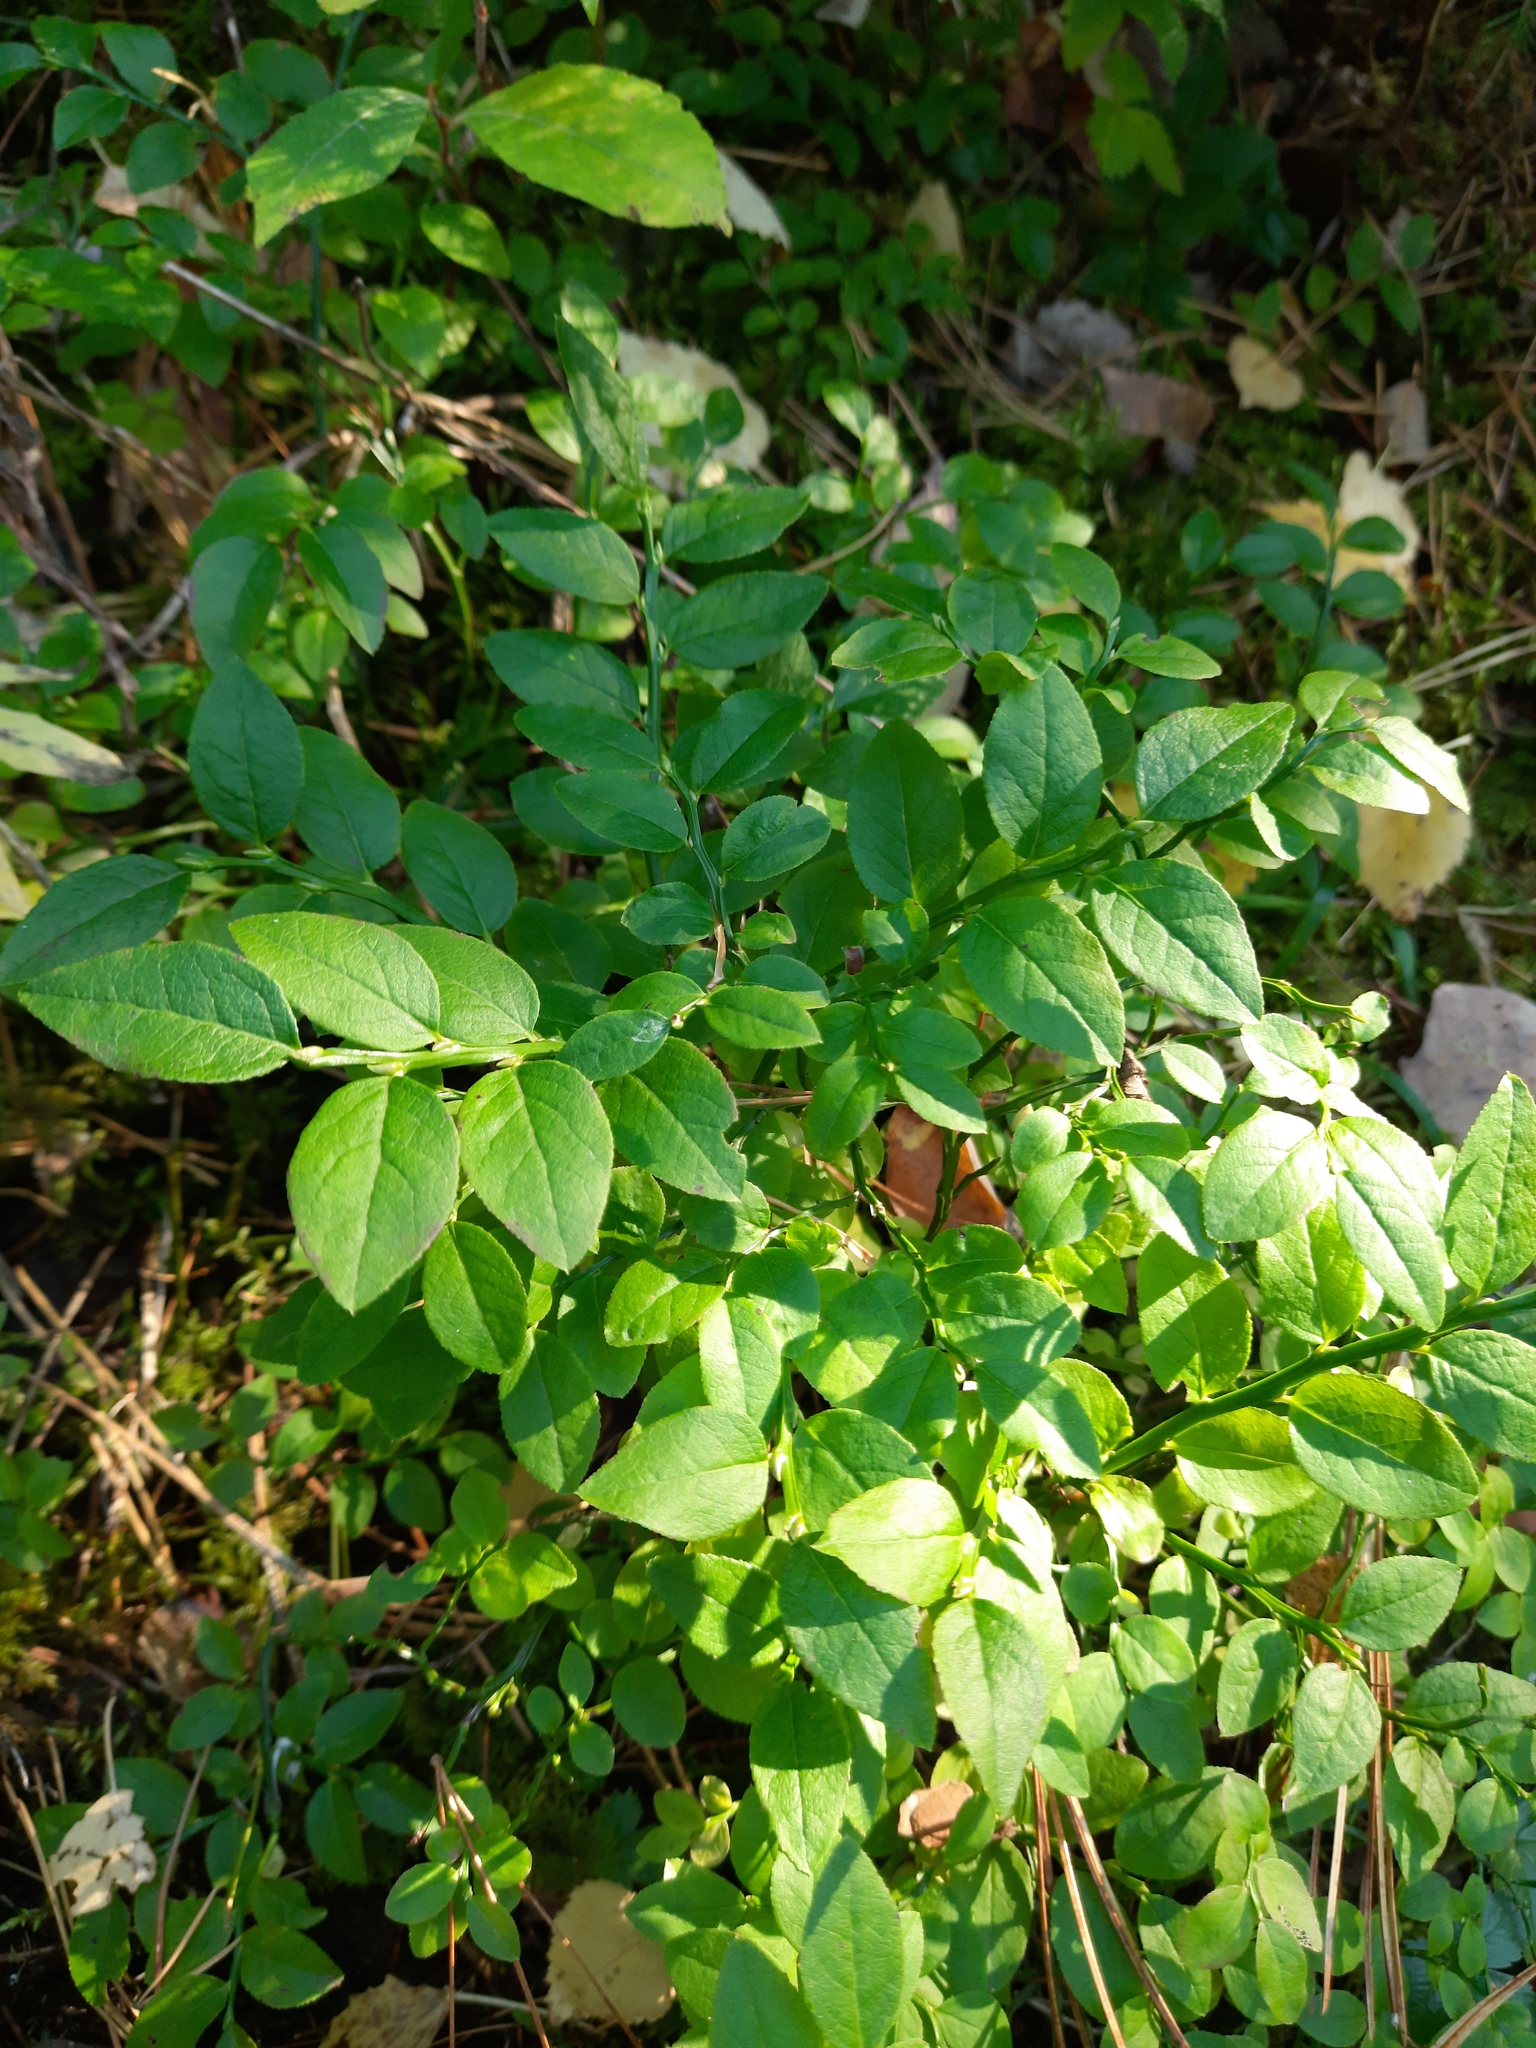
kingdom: Plantae
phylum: Tracheophyta
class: Magnoliopsida
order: Ericales
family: Ericaceae
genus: Vaccinium
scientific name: Vaccinium myrtillus
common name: Bilberry
